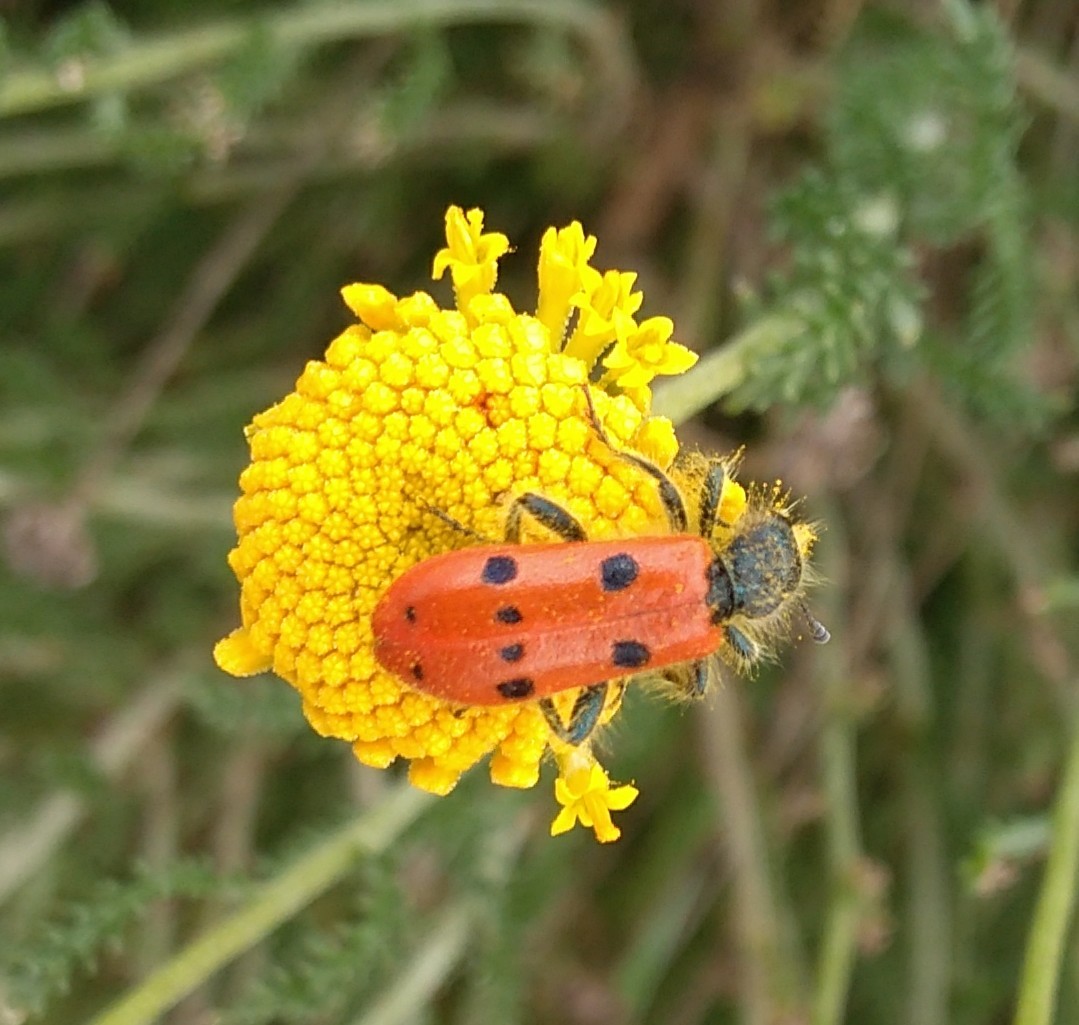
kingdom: Animalia
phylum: Arthropoda
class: Insecta
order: Coleoptera
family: Cleridae
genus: Trichodes
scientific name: Trichodes octopunctatus
